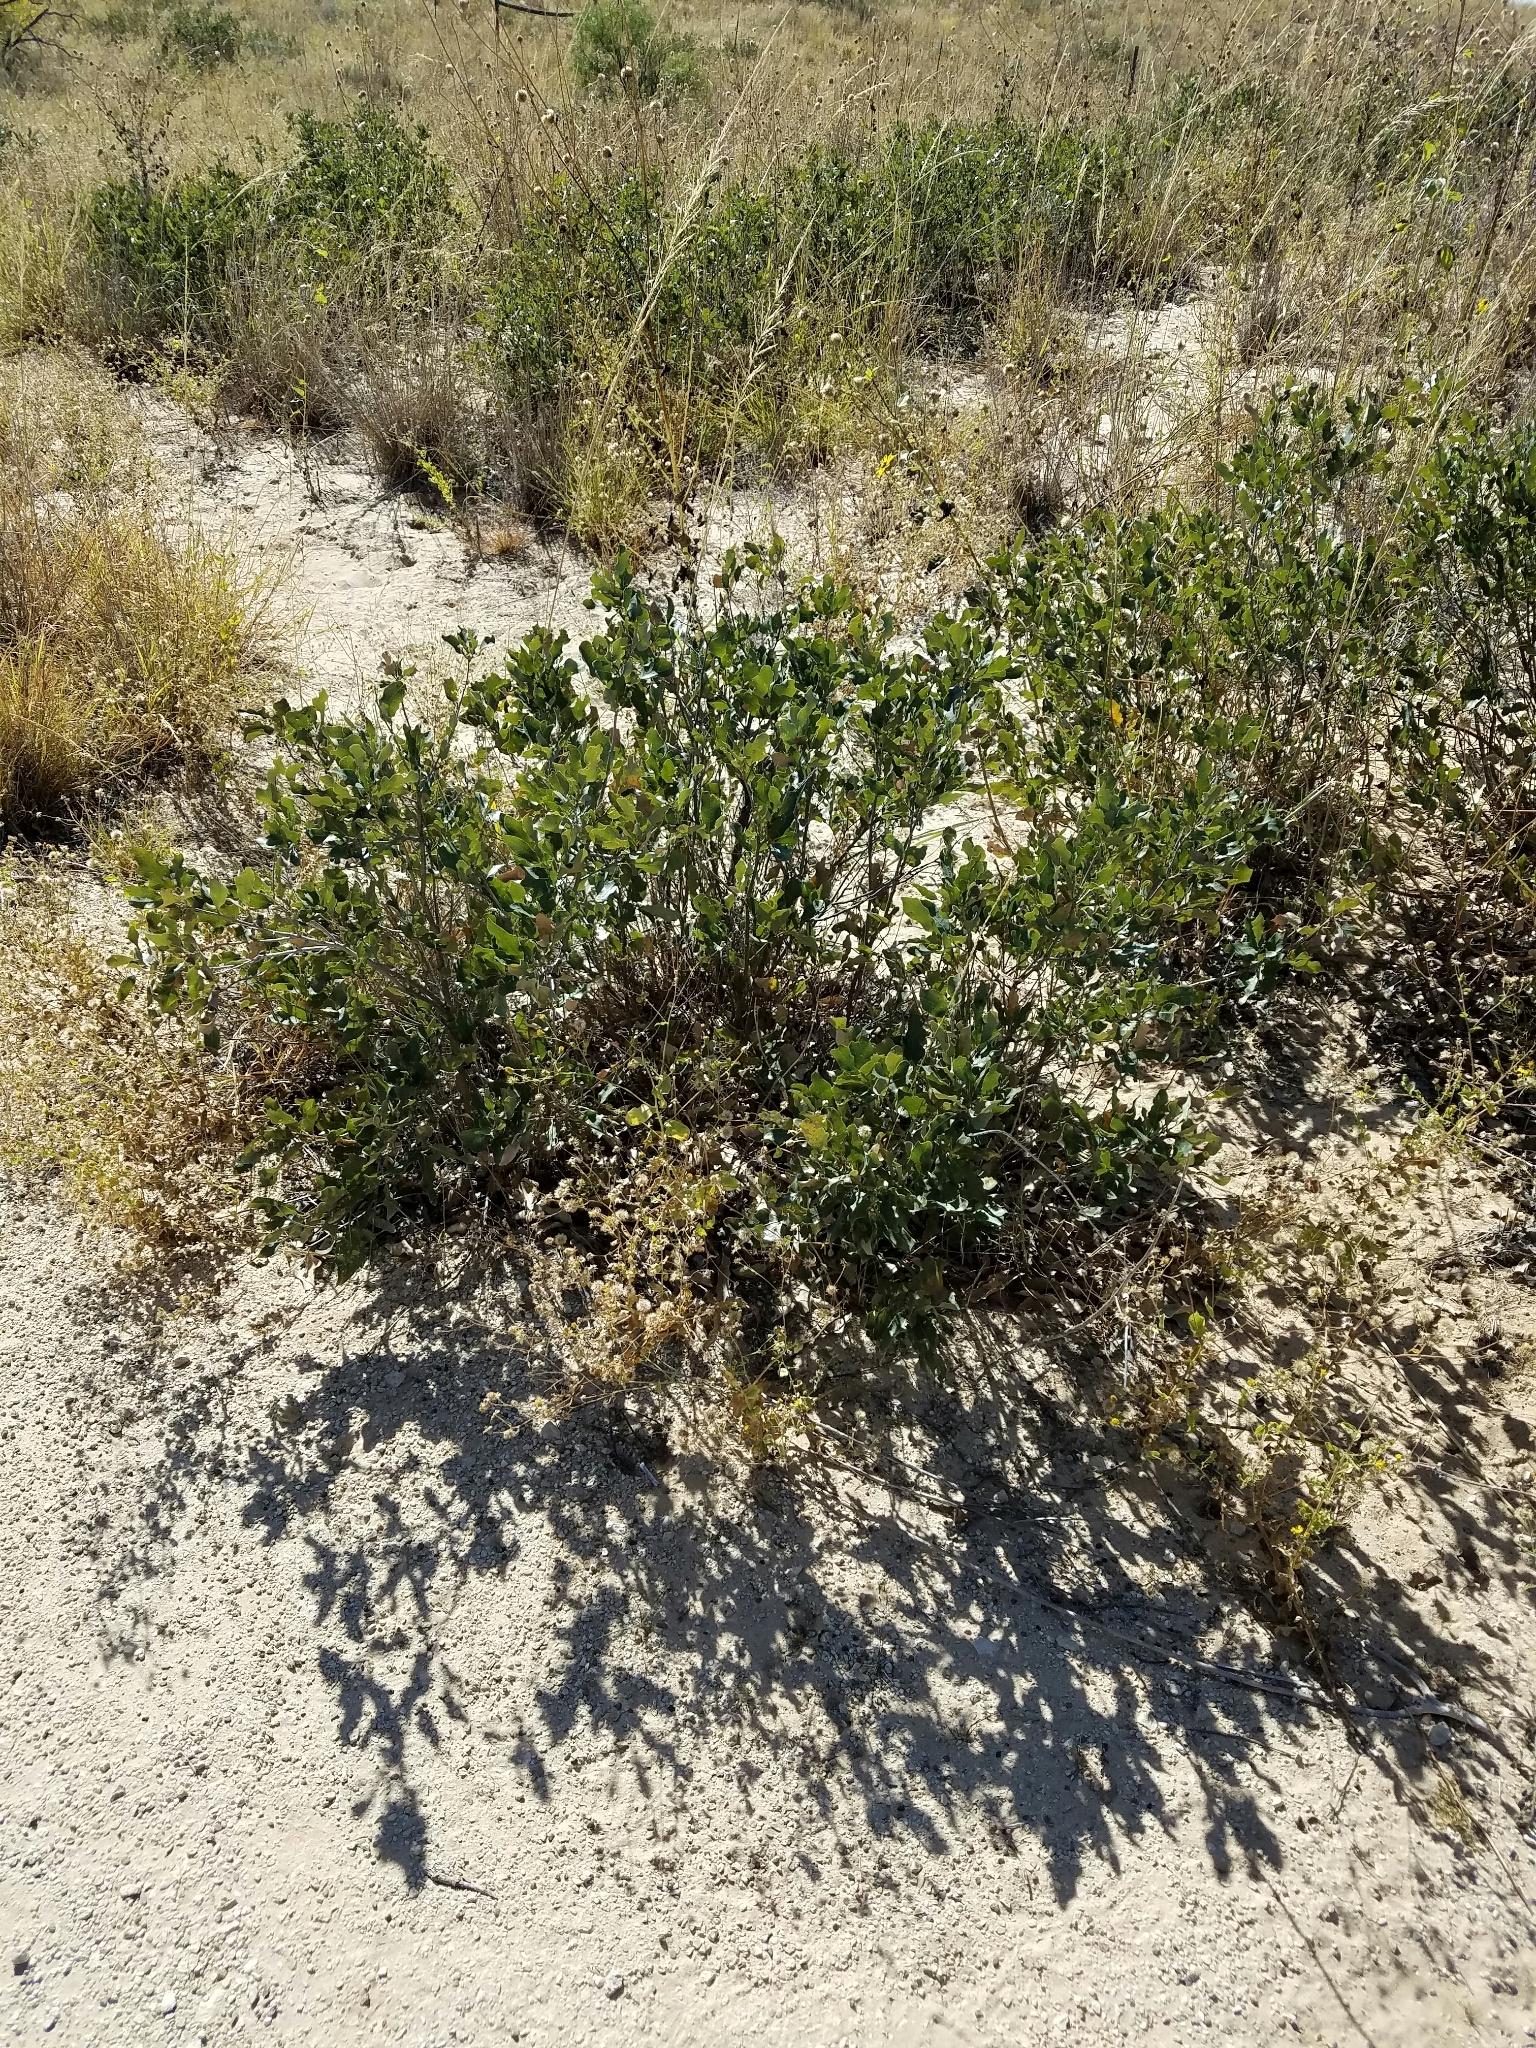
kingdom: Plantae
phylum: Tracheophyta
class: Magnoliopsida
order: Fagales
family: Fagaceae
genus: Quercus
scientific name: Quercus havardii
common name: Shinnery oak
